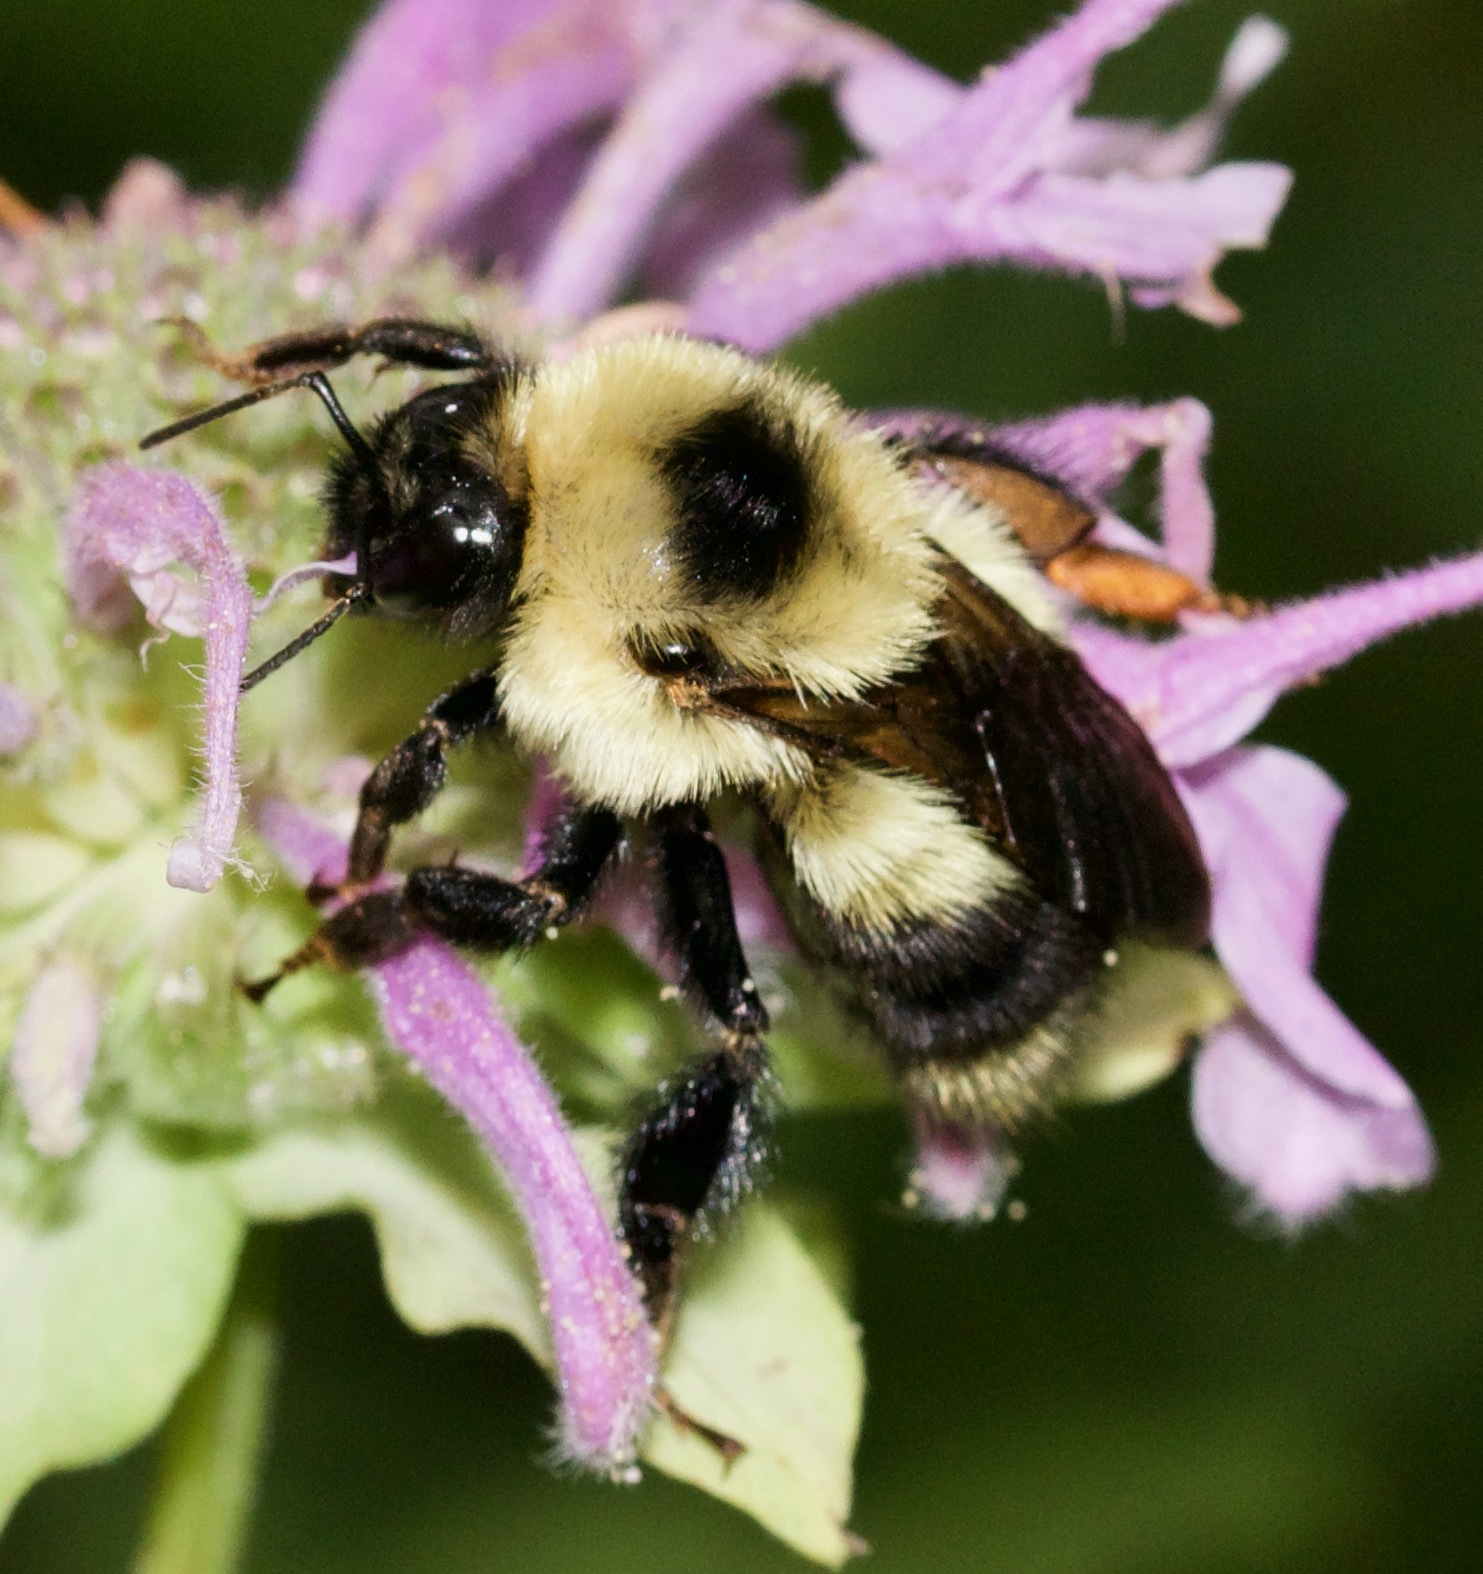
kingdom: Animalia
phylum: Arthropoda
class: Insecta
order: Hymenoptera
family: Apidae
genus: Bombus
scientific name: Bombus rufocinctus
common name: Red-belted bumble bee
